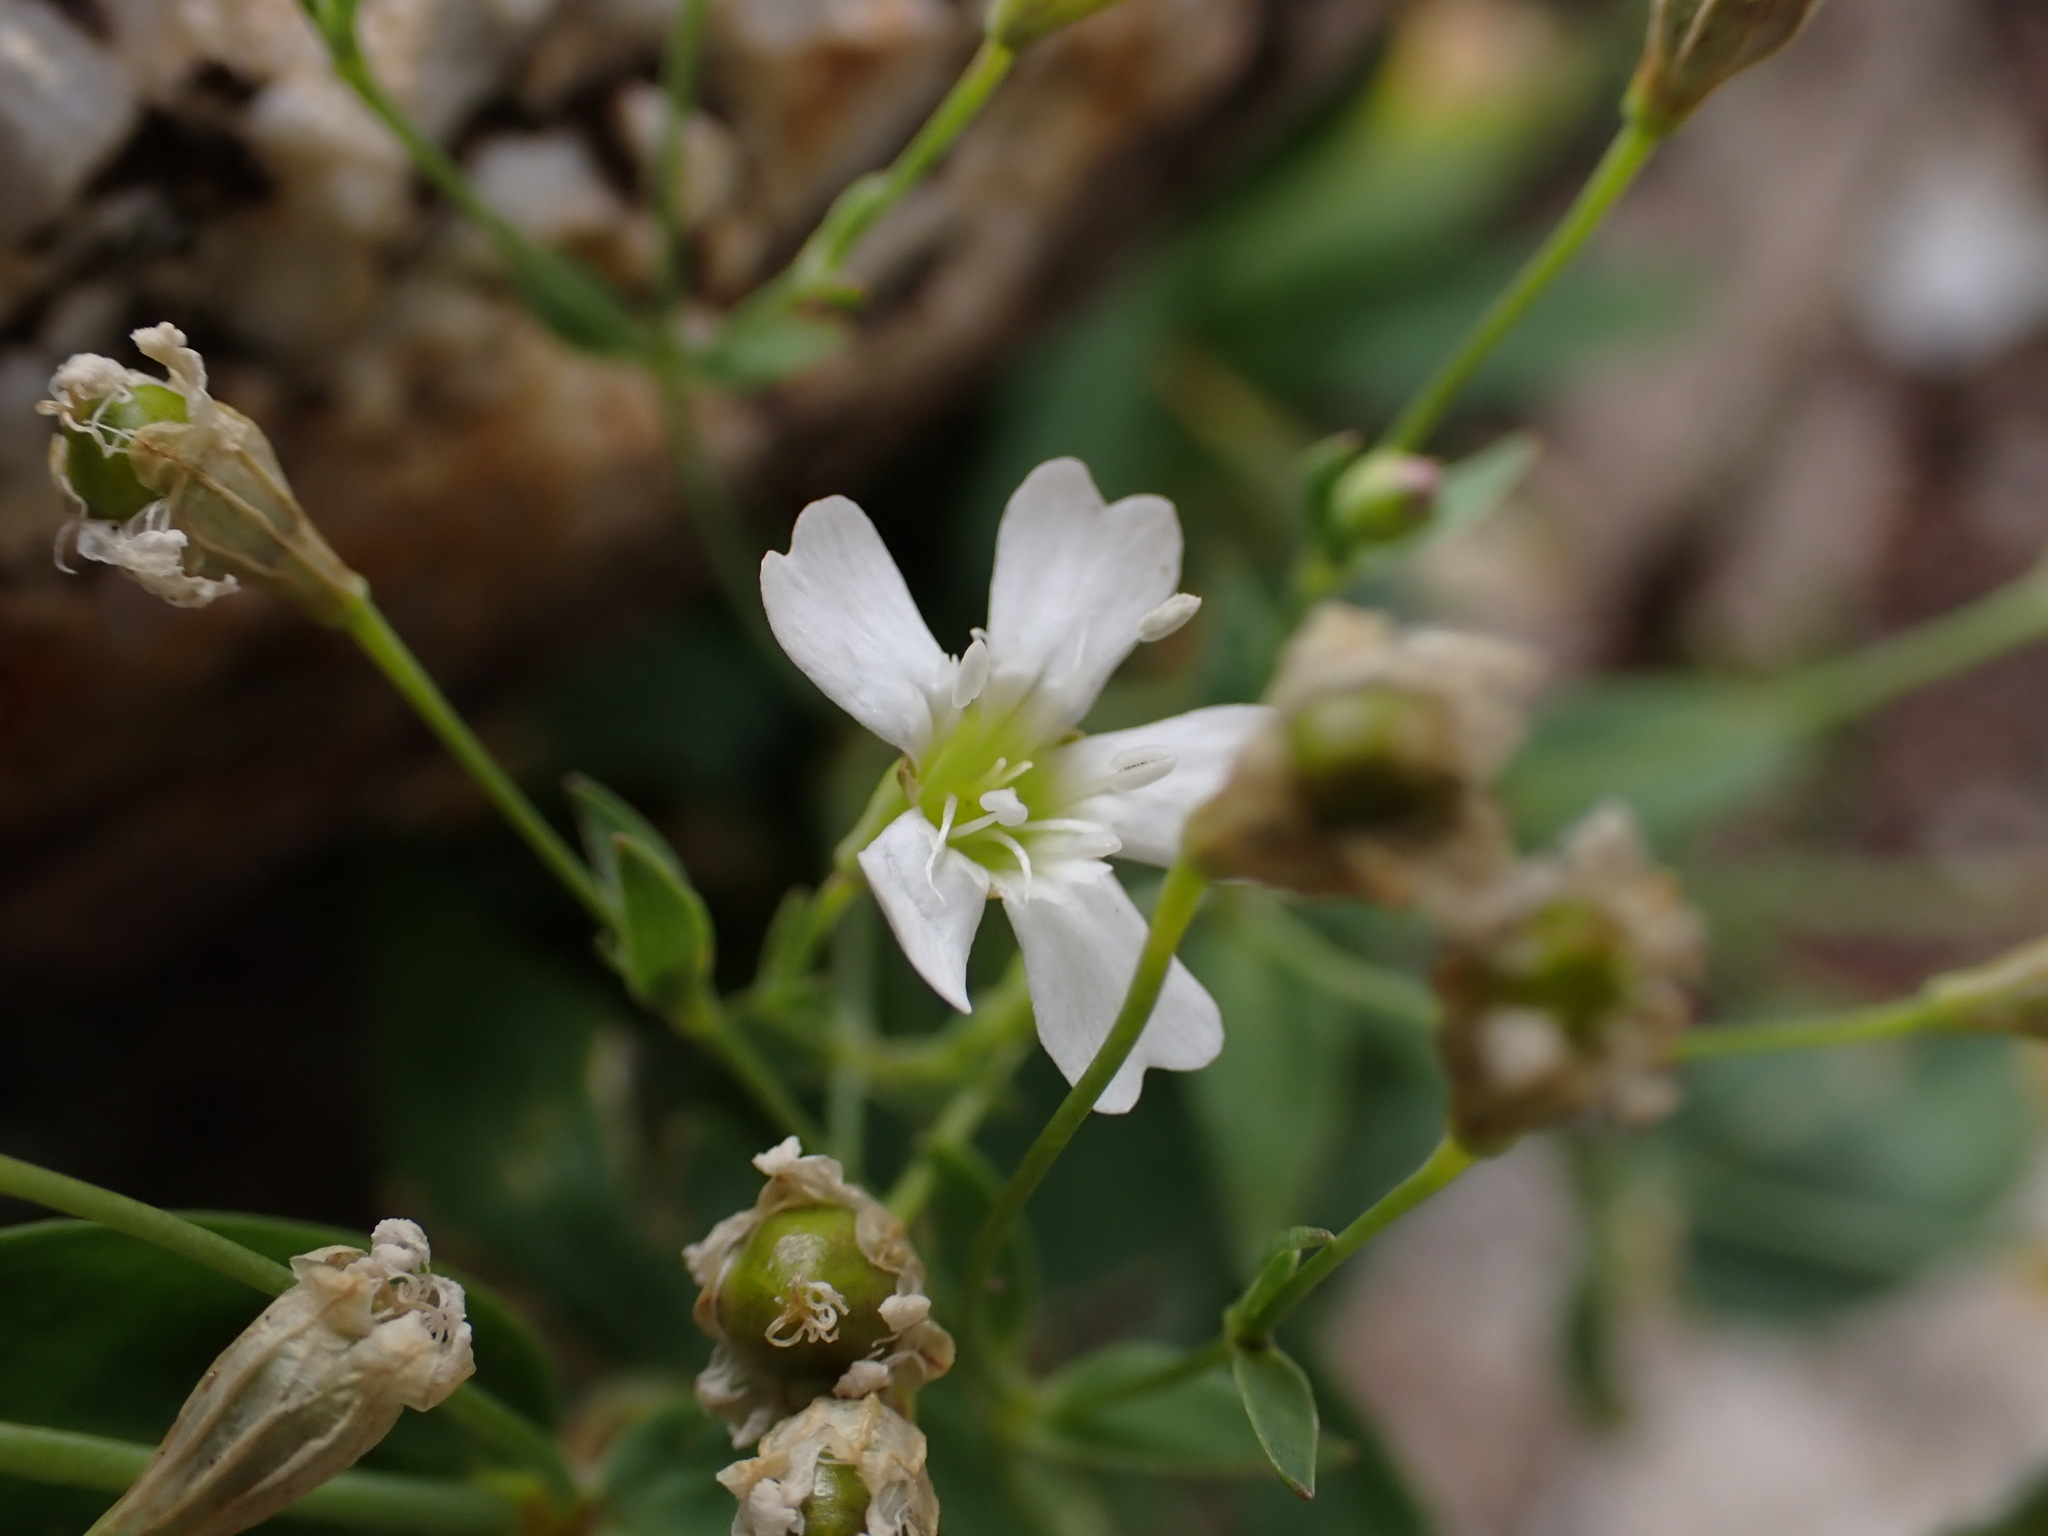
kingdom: Plantae
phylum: Tracheophyta
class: Magnoliopsida
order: Caryophyllales
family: Caryophyllaceae
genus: Atocion
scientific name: Atocion rupestre
